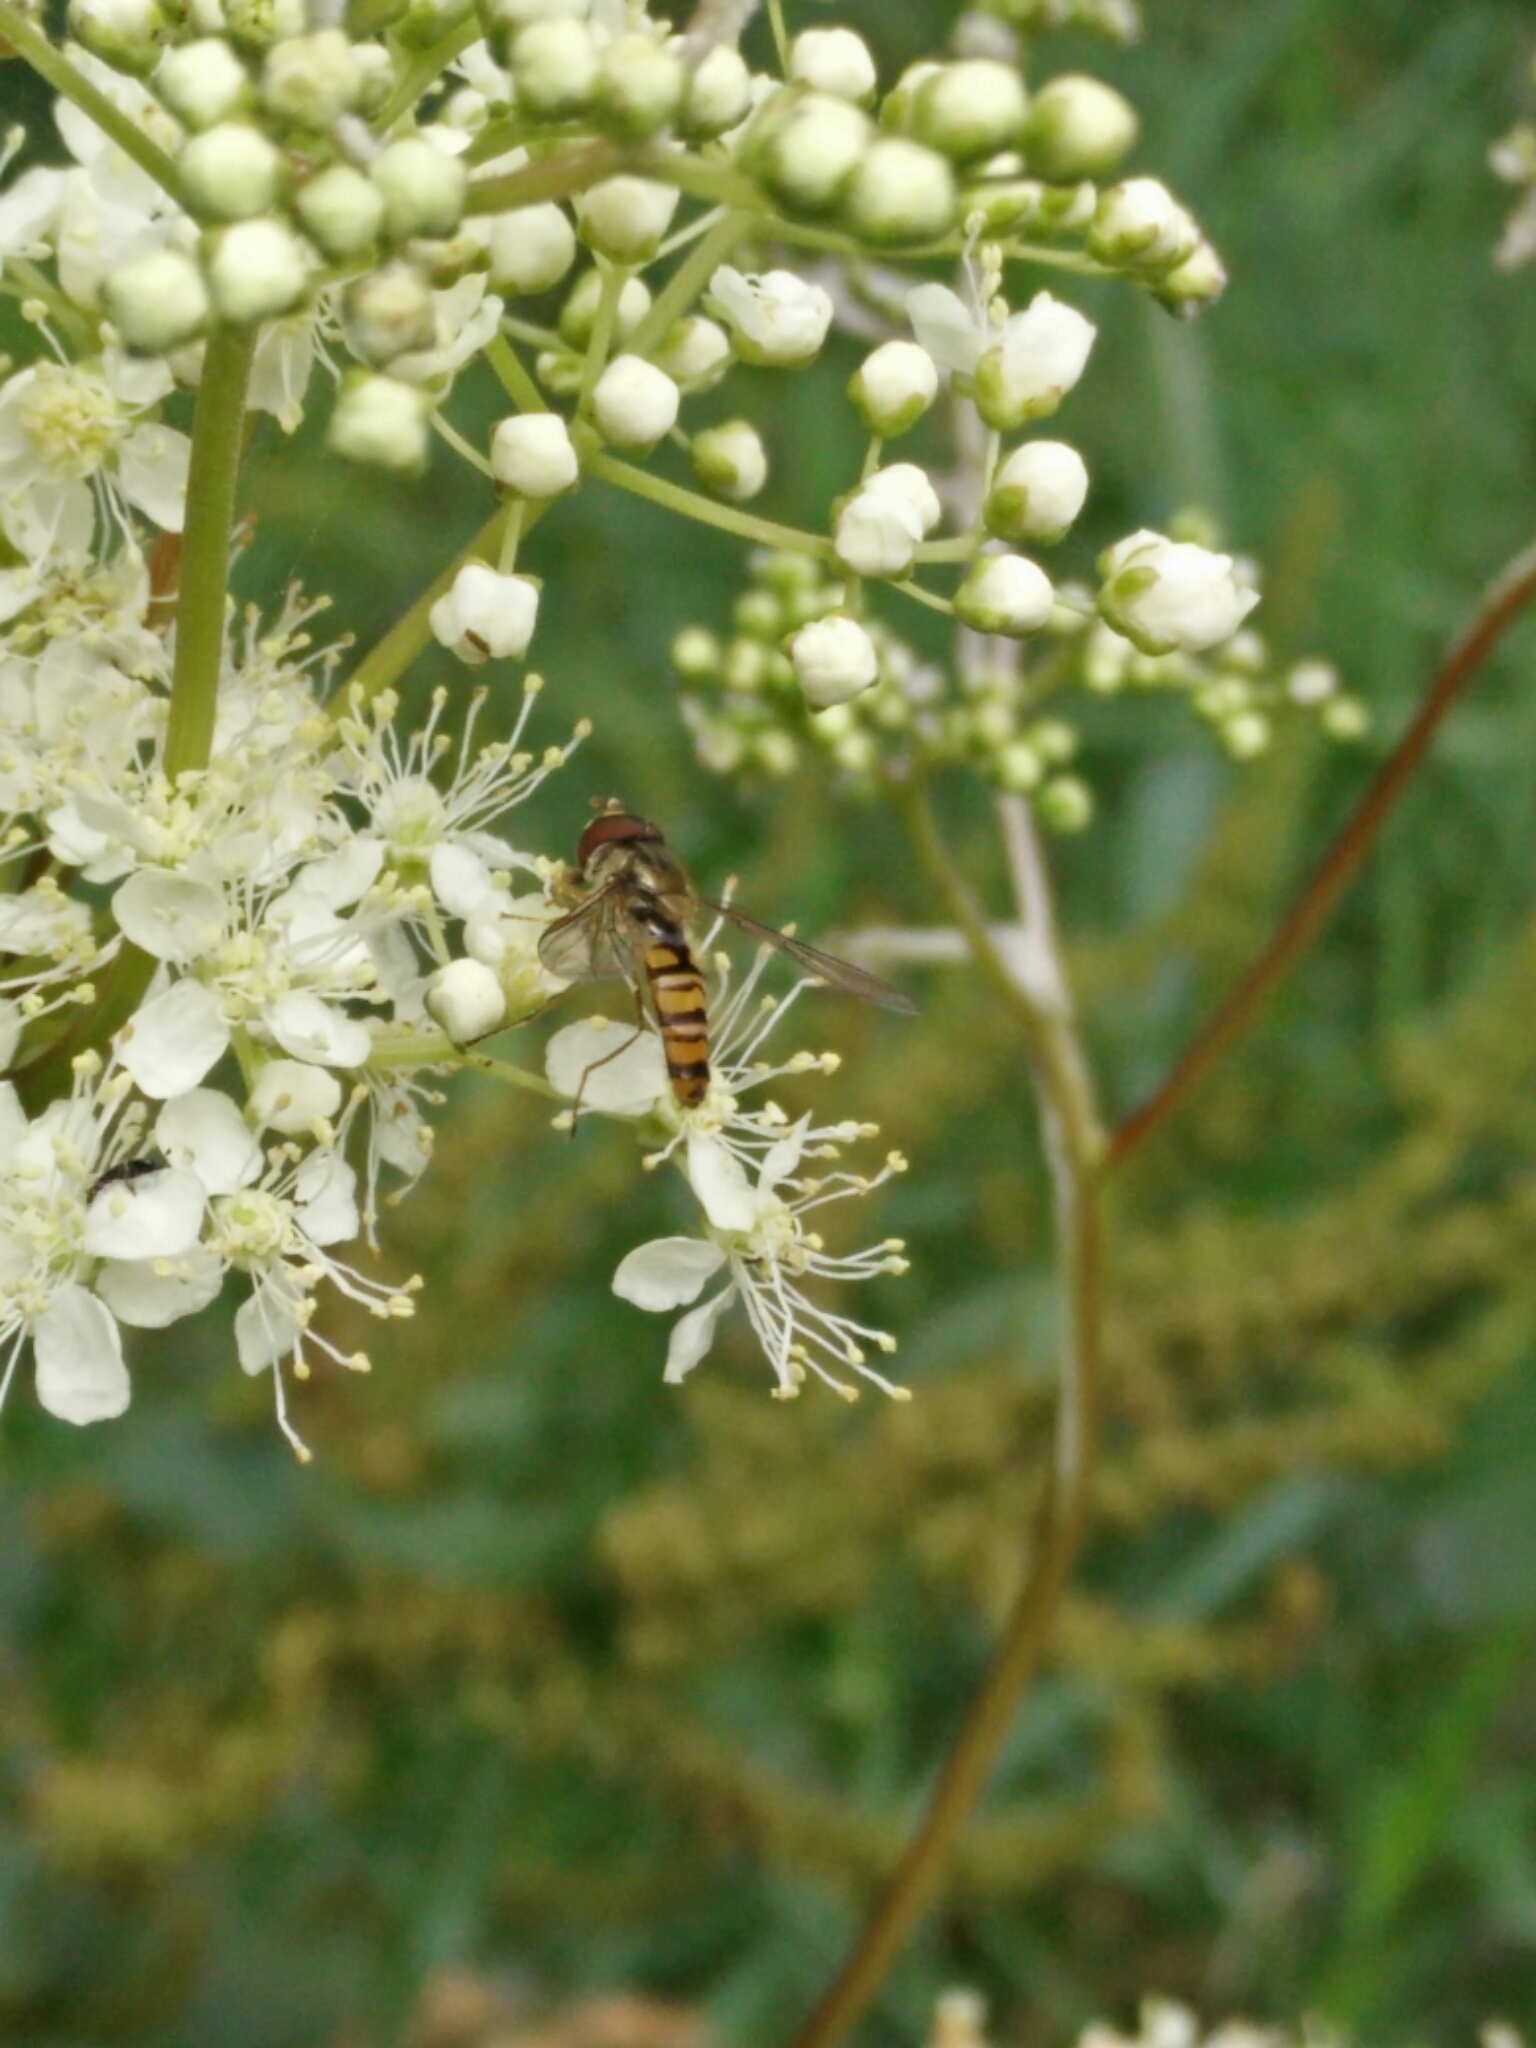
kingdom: Animalia
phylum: Arthropoda
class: Insecta
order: Diptera
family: Syrphidae
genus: Episyrphus
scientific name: Episyrphus balteatus
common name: Marmalade hoverfly
